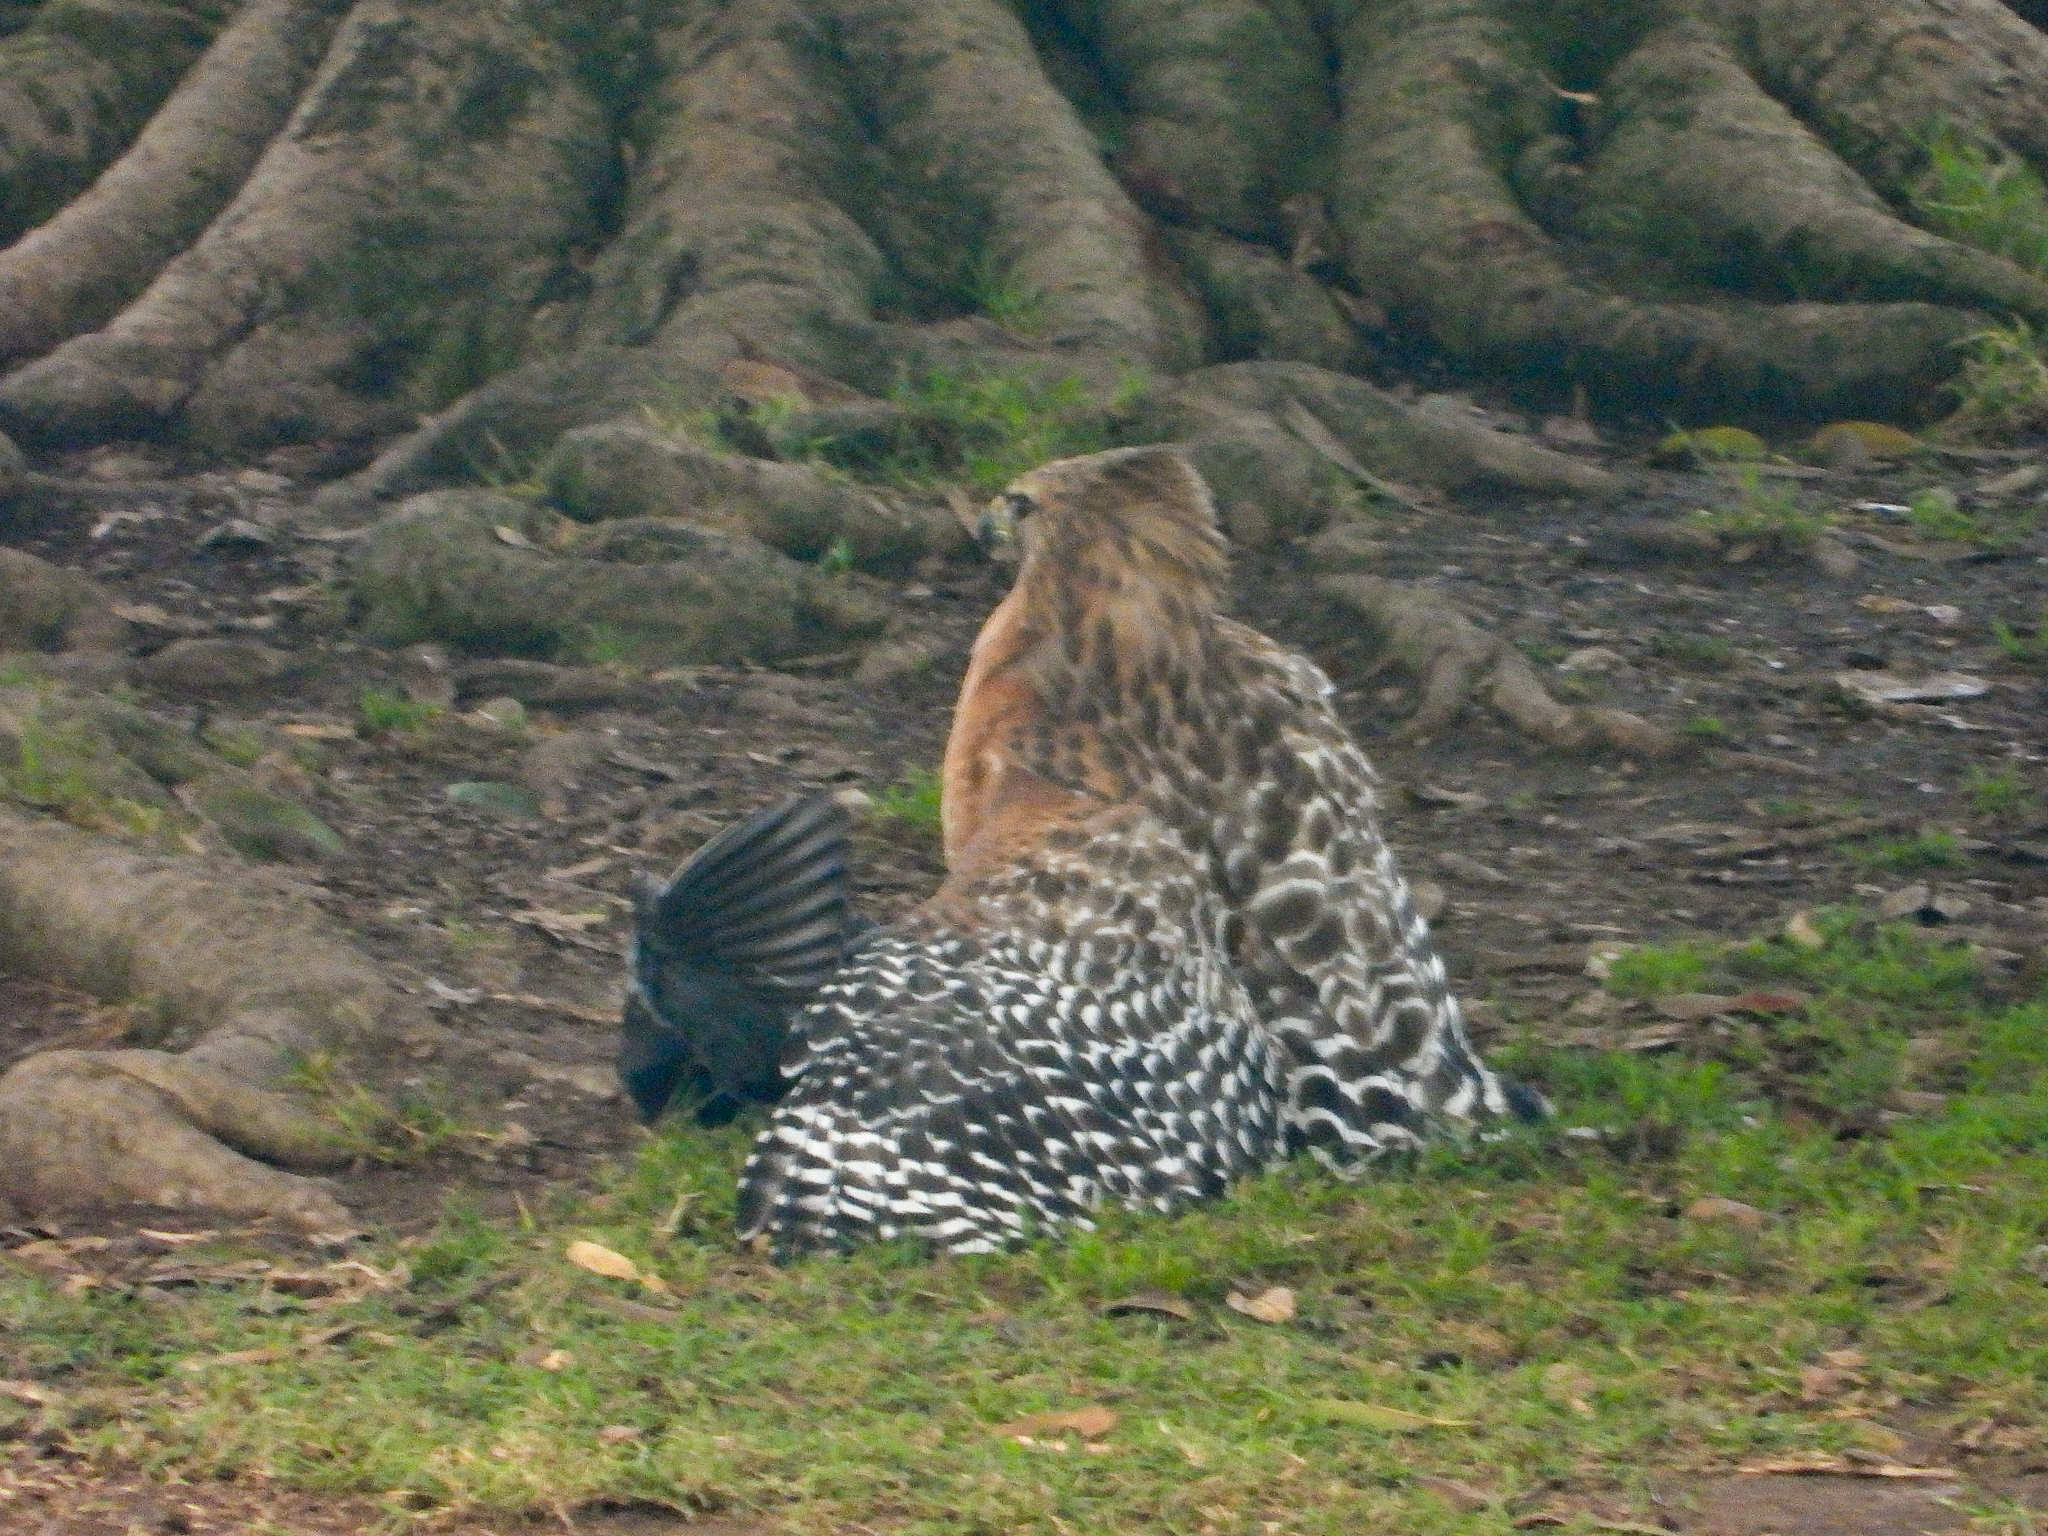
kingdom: Animalia
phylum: Chordata
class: Aves
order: Accipitriformes
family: Accipitridae
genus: Buteo
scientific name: Buteo lineatus
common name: Red-shouldered hawk
